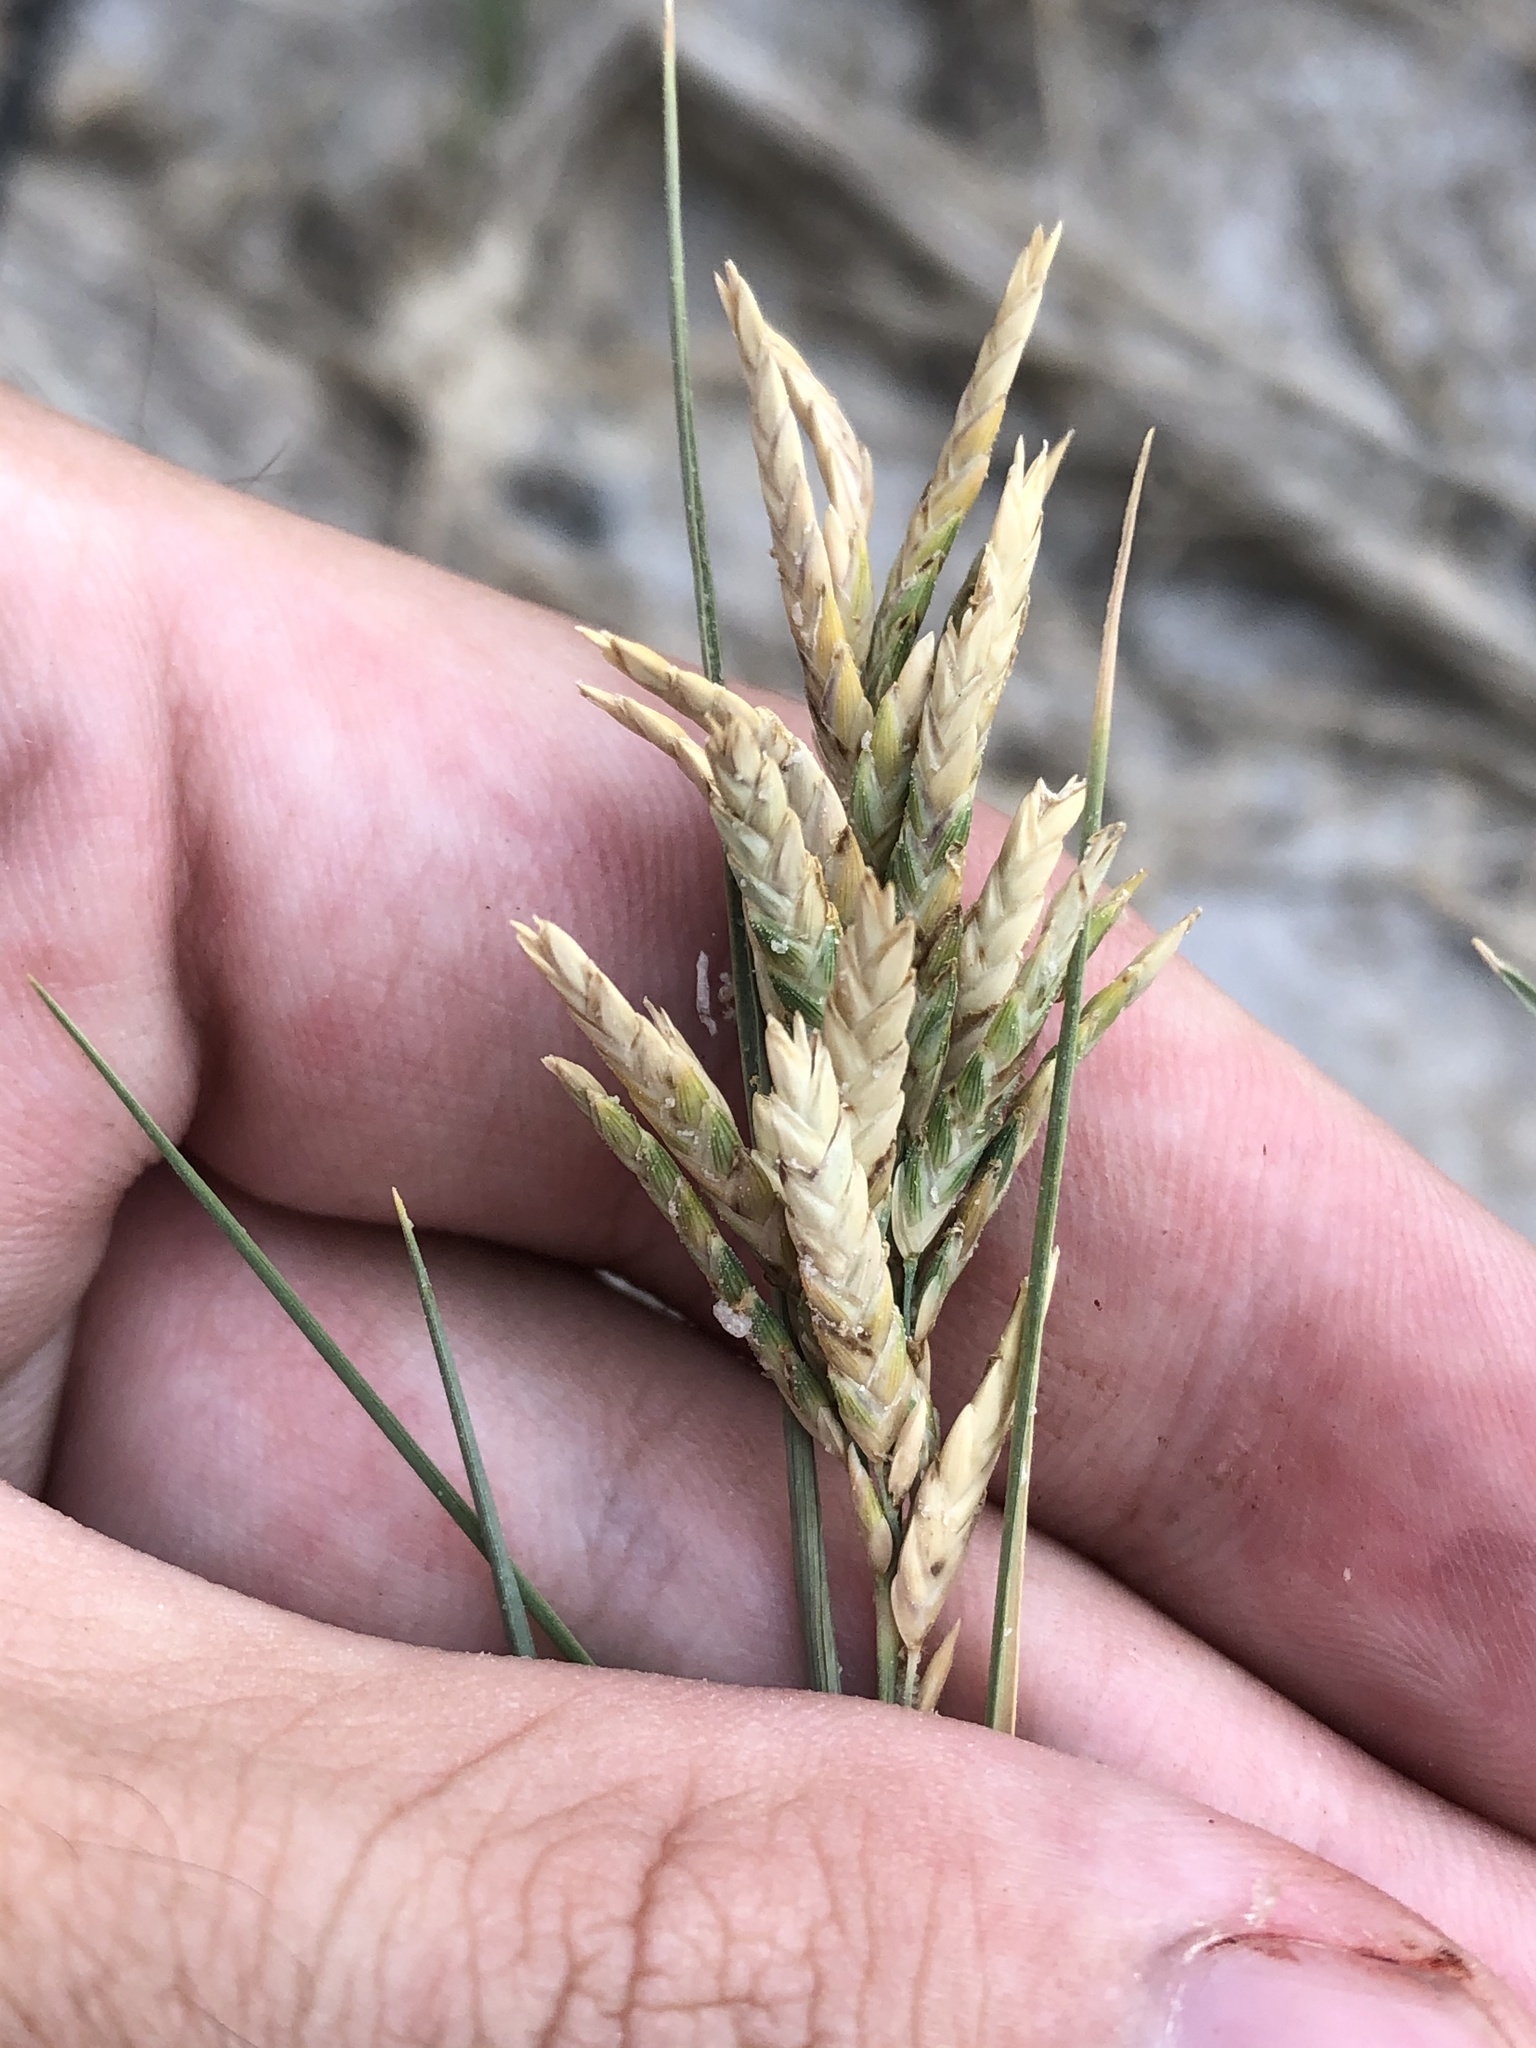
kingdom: Plantae
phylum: Tracheophyta
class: Liliopsida
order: Poales
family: Poaceae
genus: Distichlis
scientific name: Distichlis spicata
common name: Saltgrass
